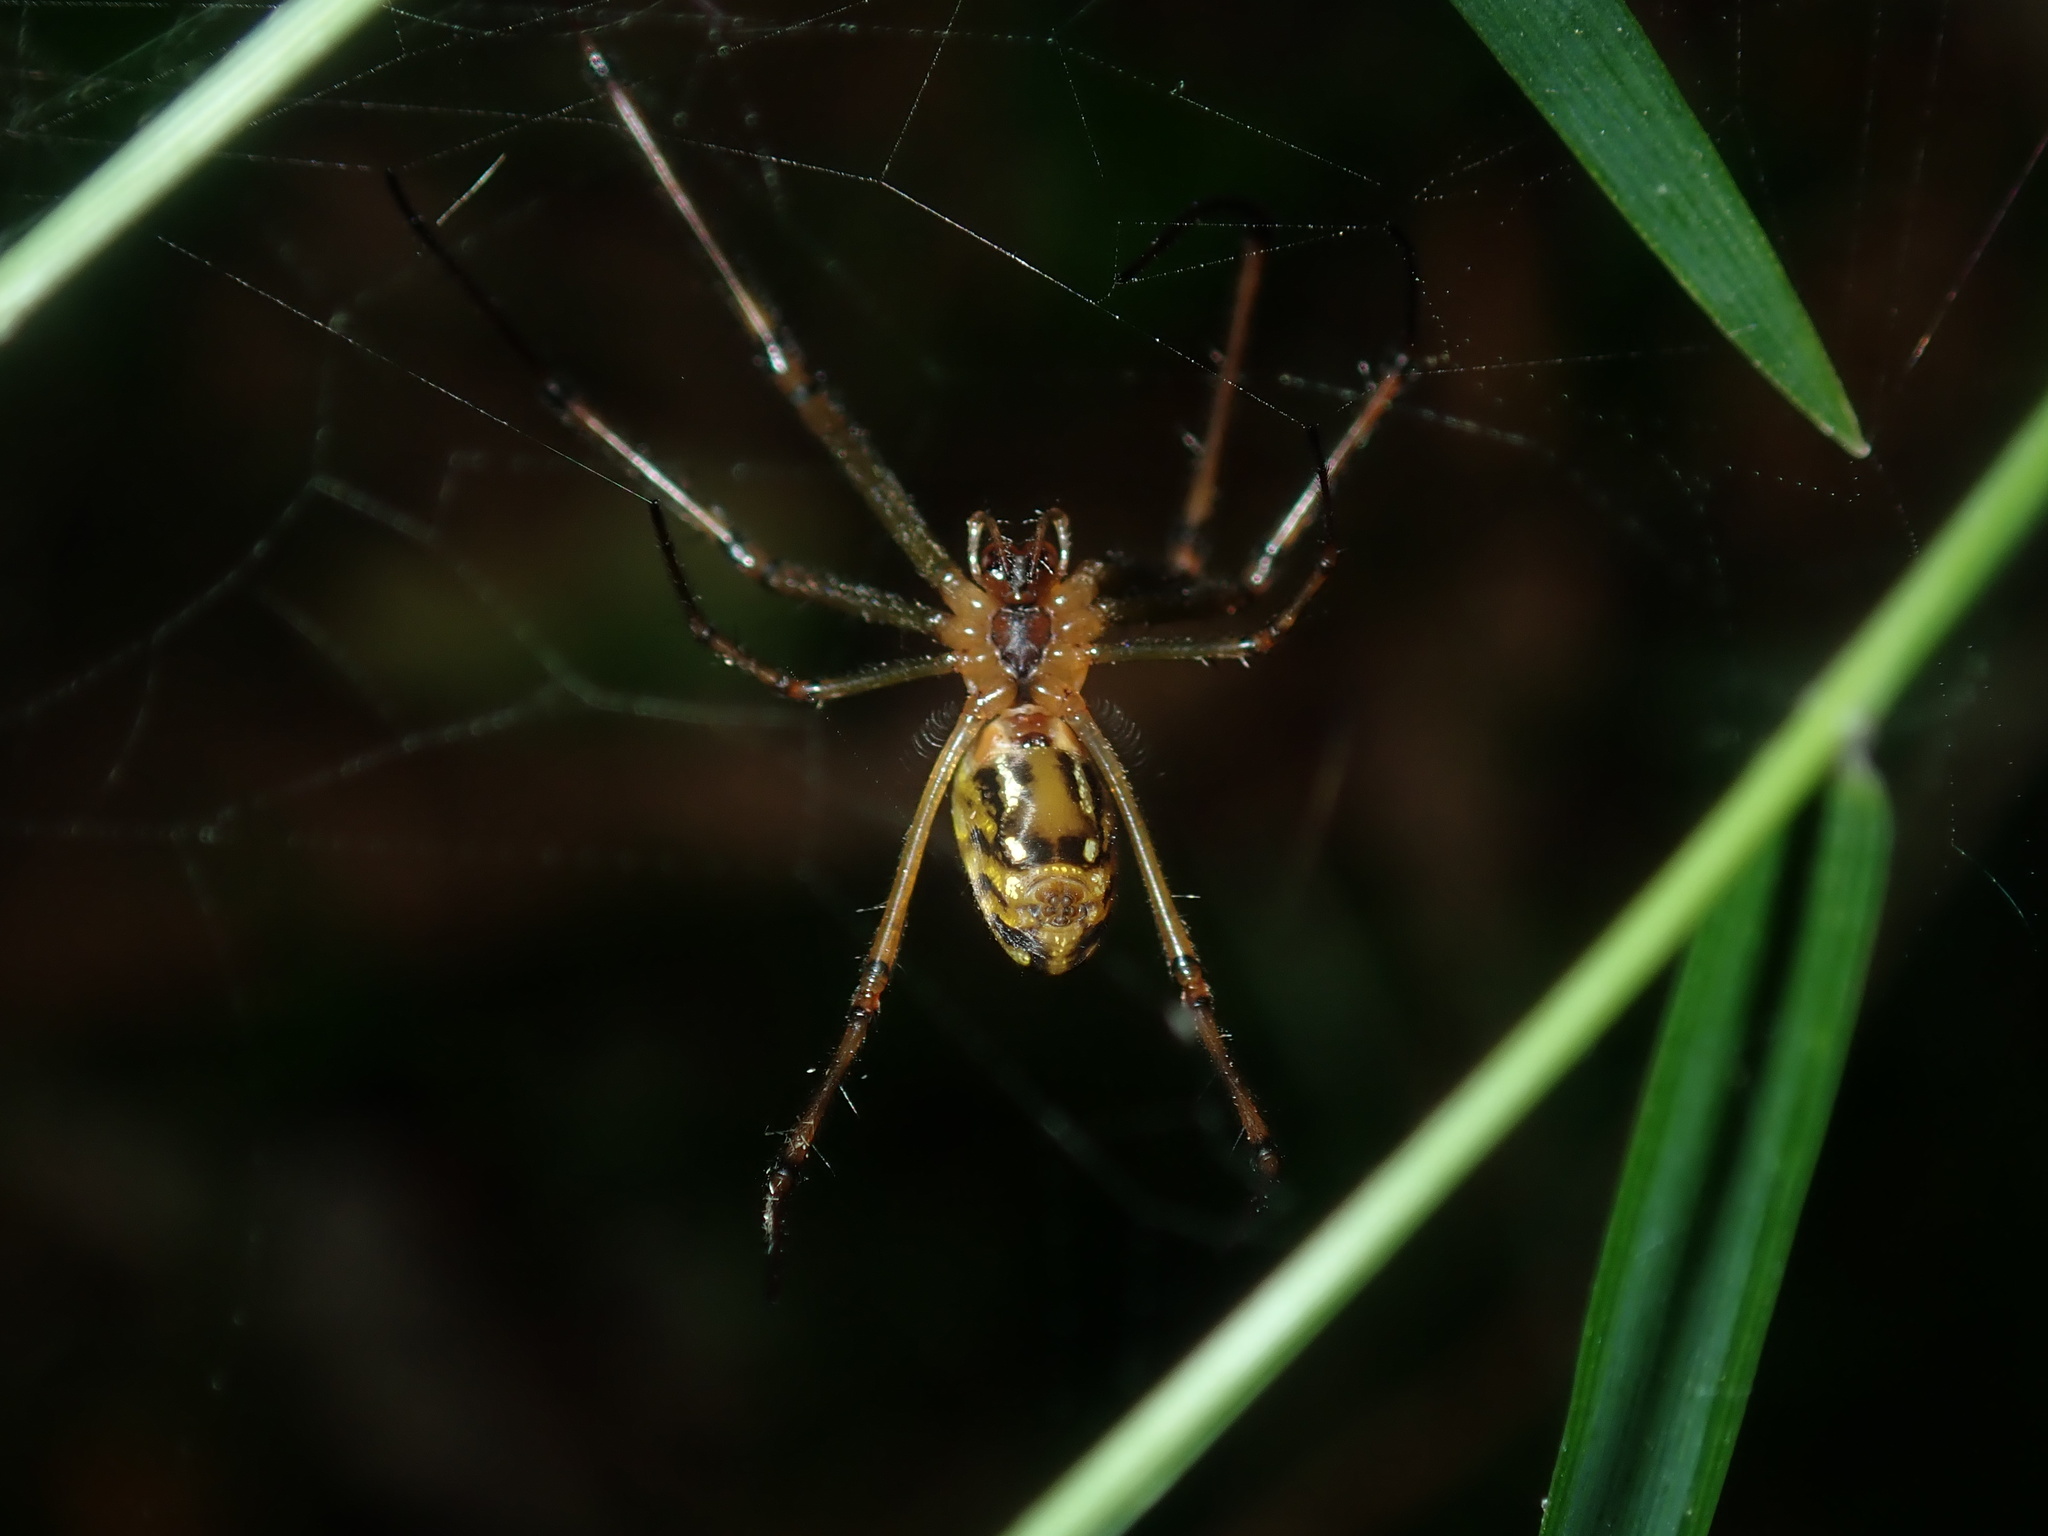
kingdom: Animalia
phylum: Arthropoda
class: Arachnida
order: Araneae
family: Tetragnathidae
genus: Leucauge
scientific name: Leucauge dromedaria
